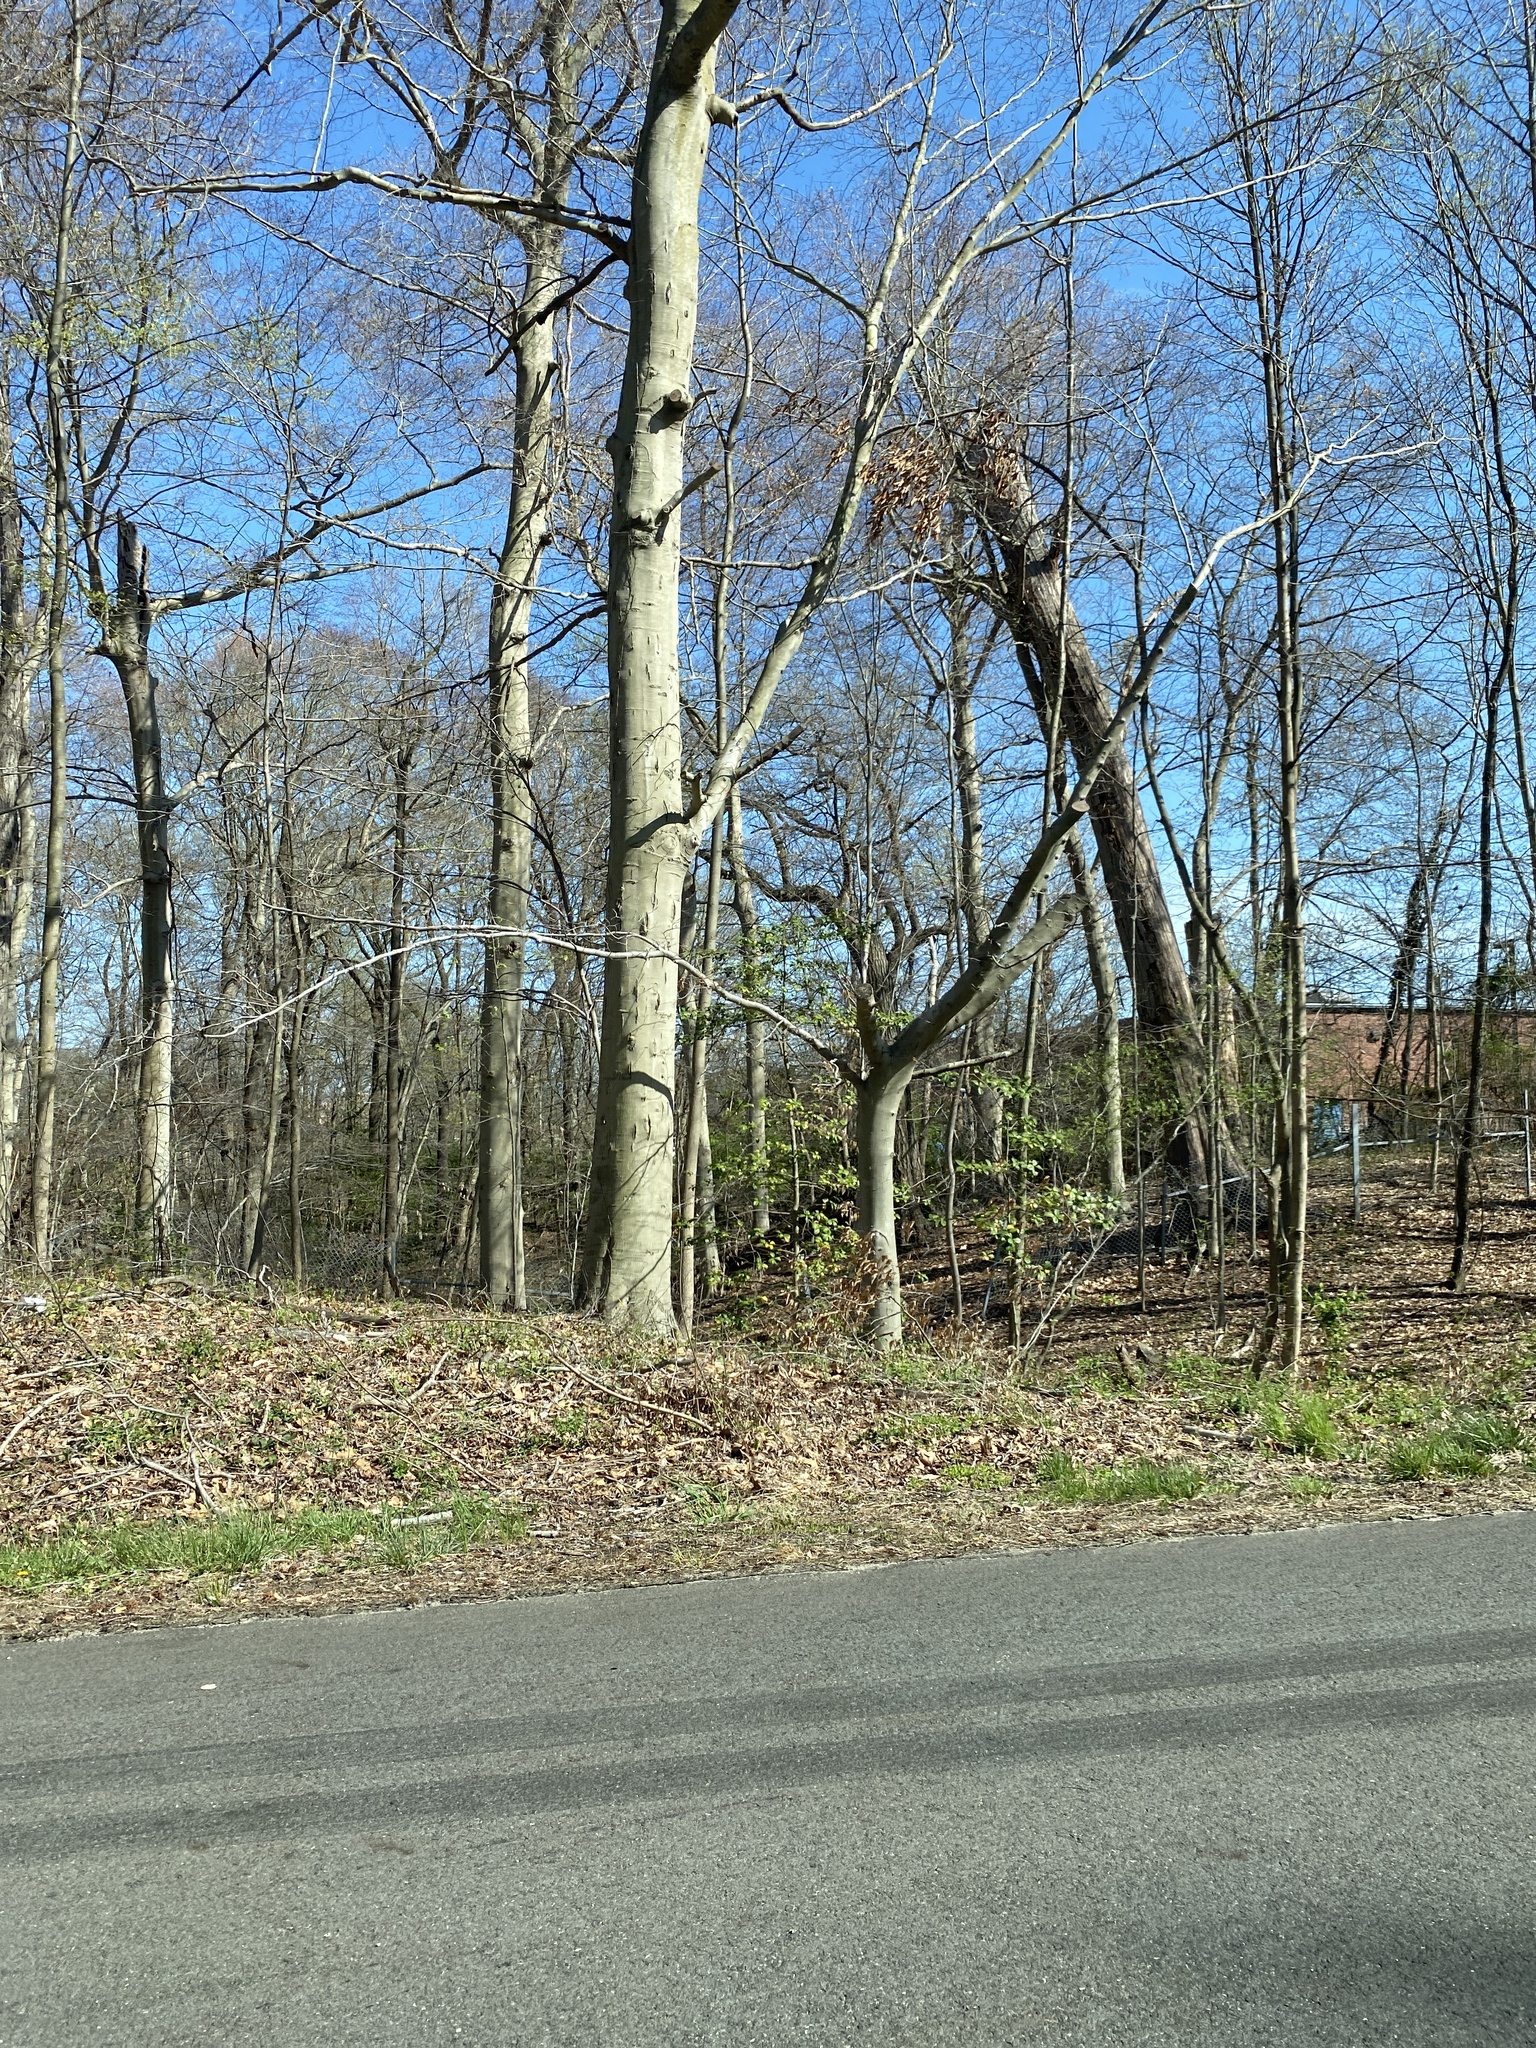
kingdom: Plantae
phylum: Tracheophyta
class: Magnoliopsida
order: Fagales
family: Fagaceae
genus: Fagus
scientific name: Fagus grandifolia
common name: American beech
